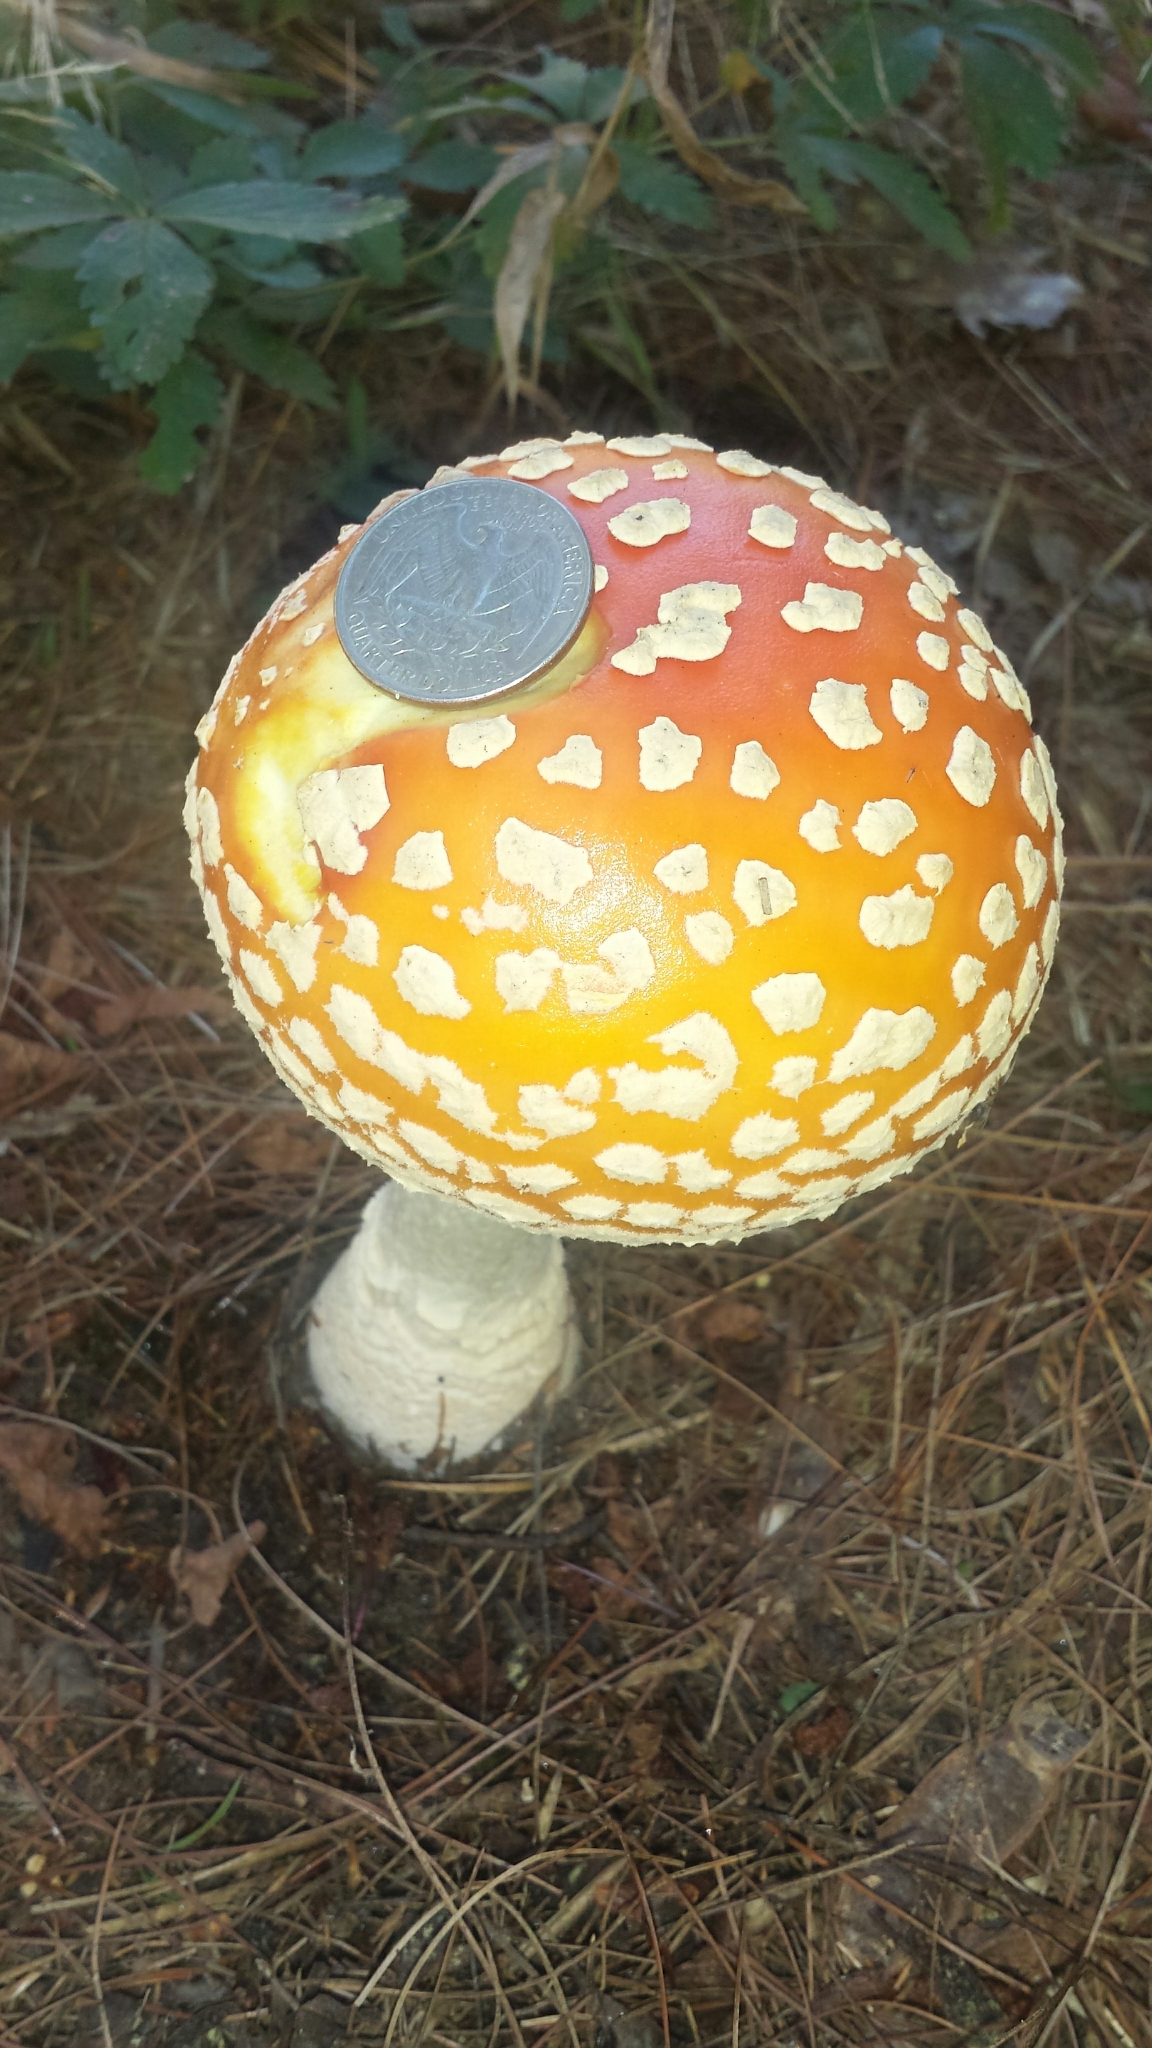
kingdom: Fungi
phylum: Basidiomycota
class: Agaricomycetes
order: Agaricales
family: Amanitaceae
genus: Amanita
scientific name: Amanita muscaria
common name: Fly agaric
